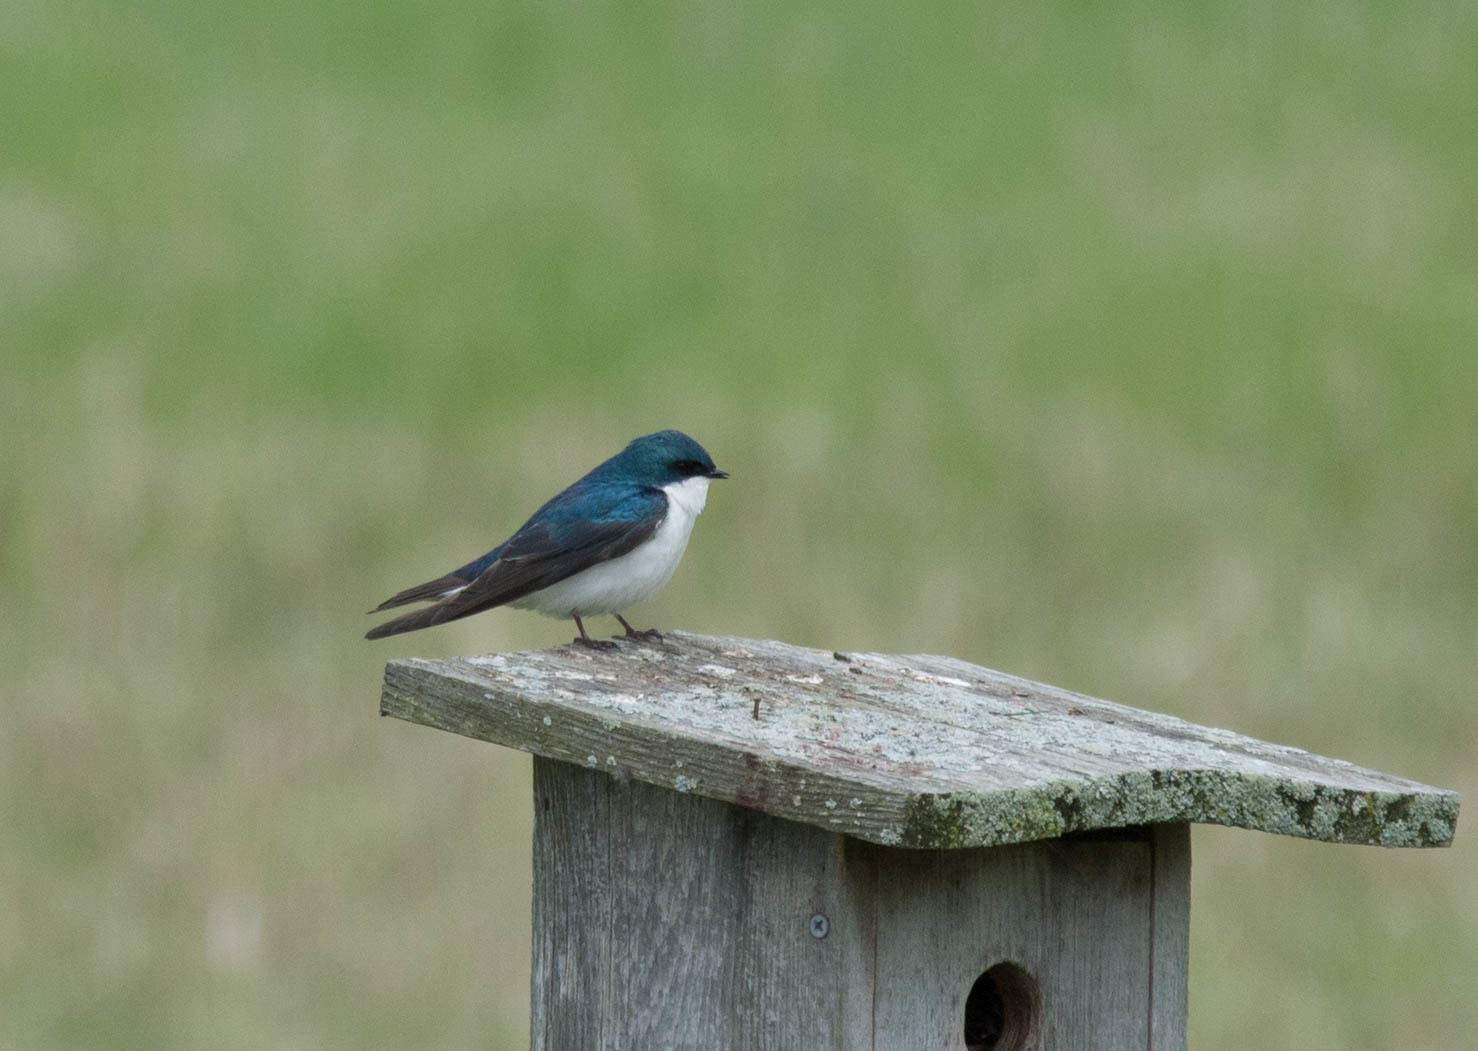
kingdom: Animalia
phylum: Chordata
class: Aves
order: Passeriformes
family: Hirundinidae
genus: Tachycineta
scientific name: Tachycineta bicolor
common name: Tree swallow
